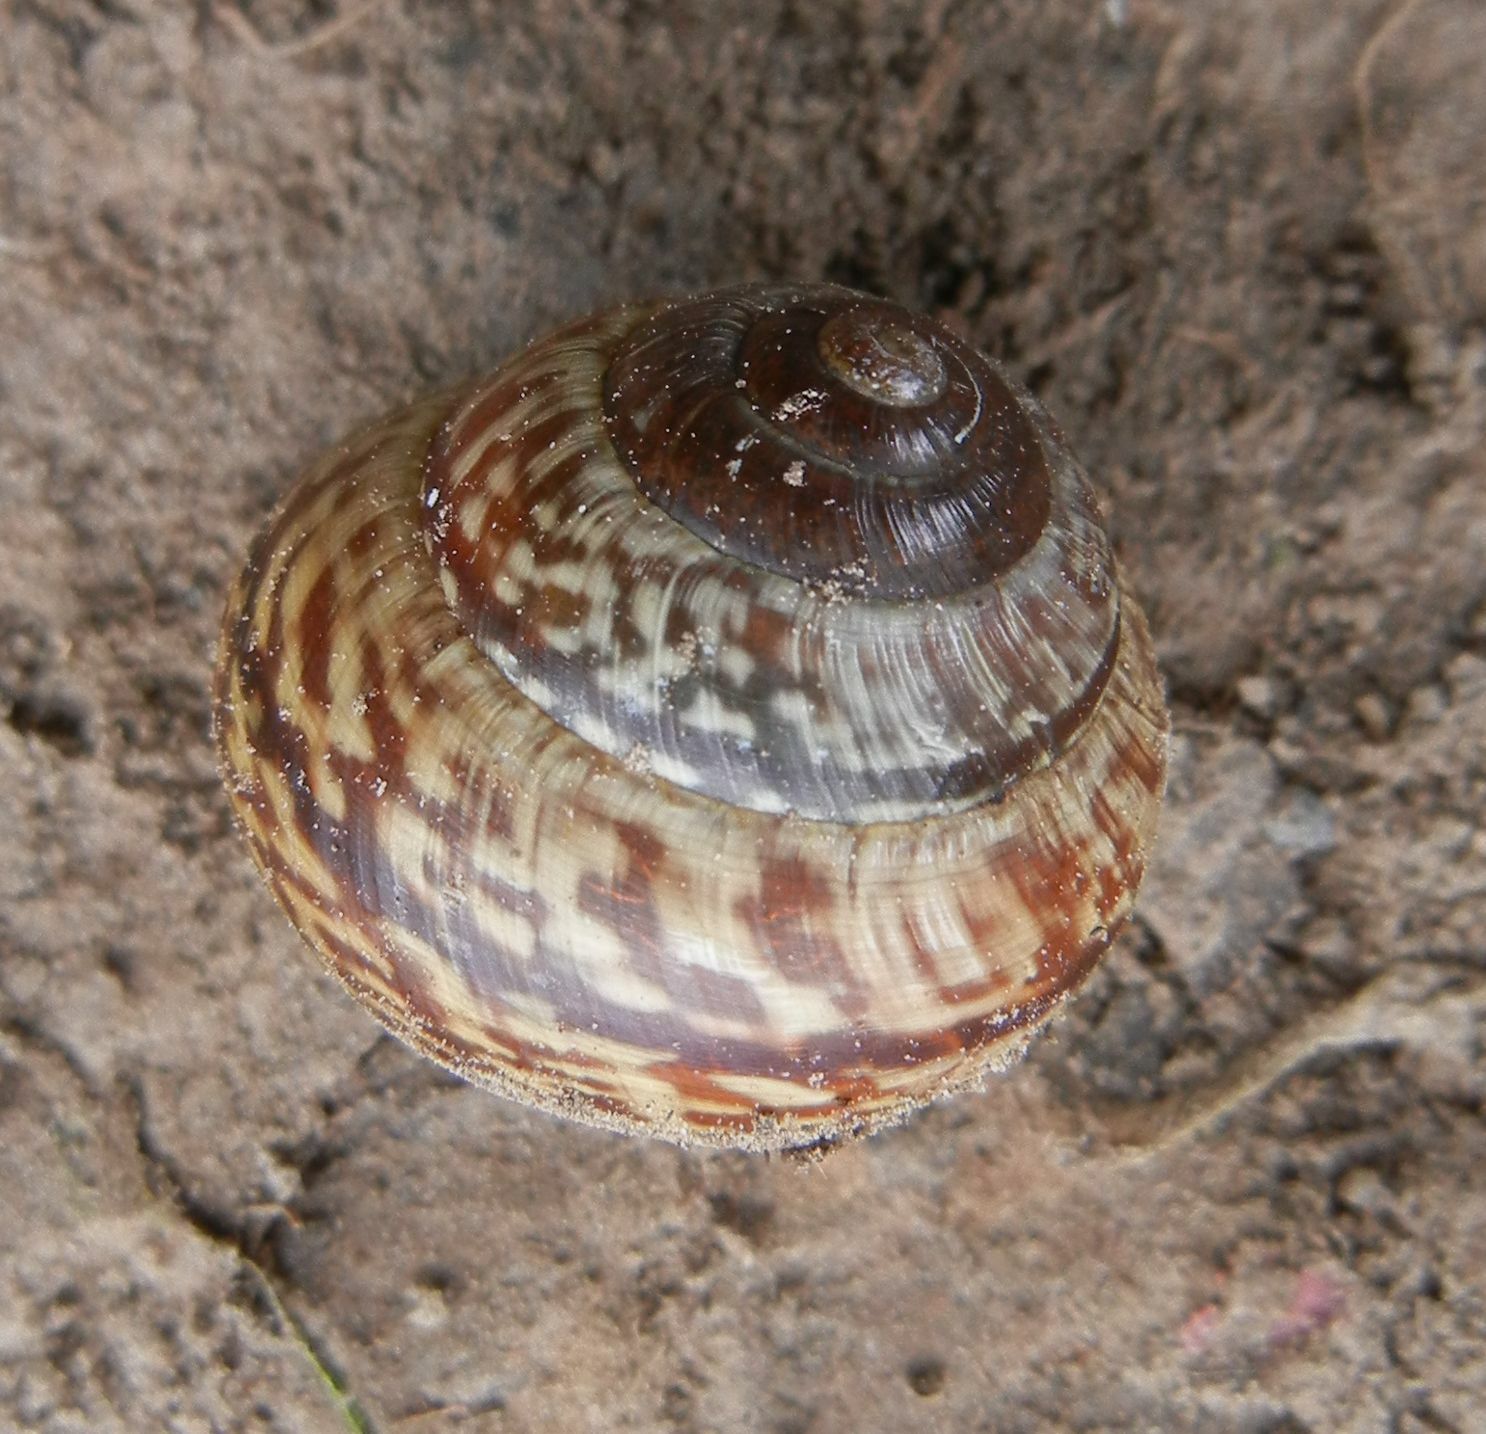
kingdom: Animalia
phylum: Mollusca
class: Gastropoda
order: Stylommatophora
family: Helicidae
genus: Arianta
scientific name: Arianta arbustorum
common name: Copse snail
